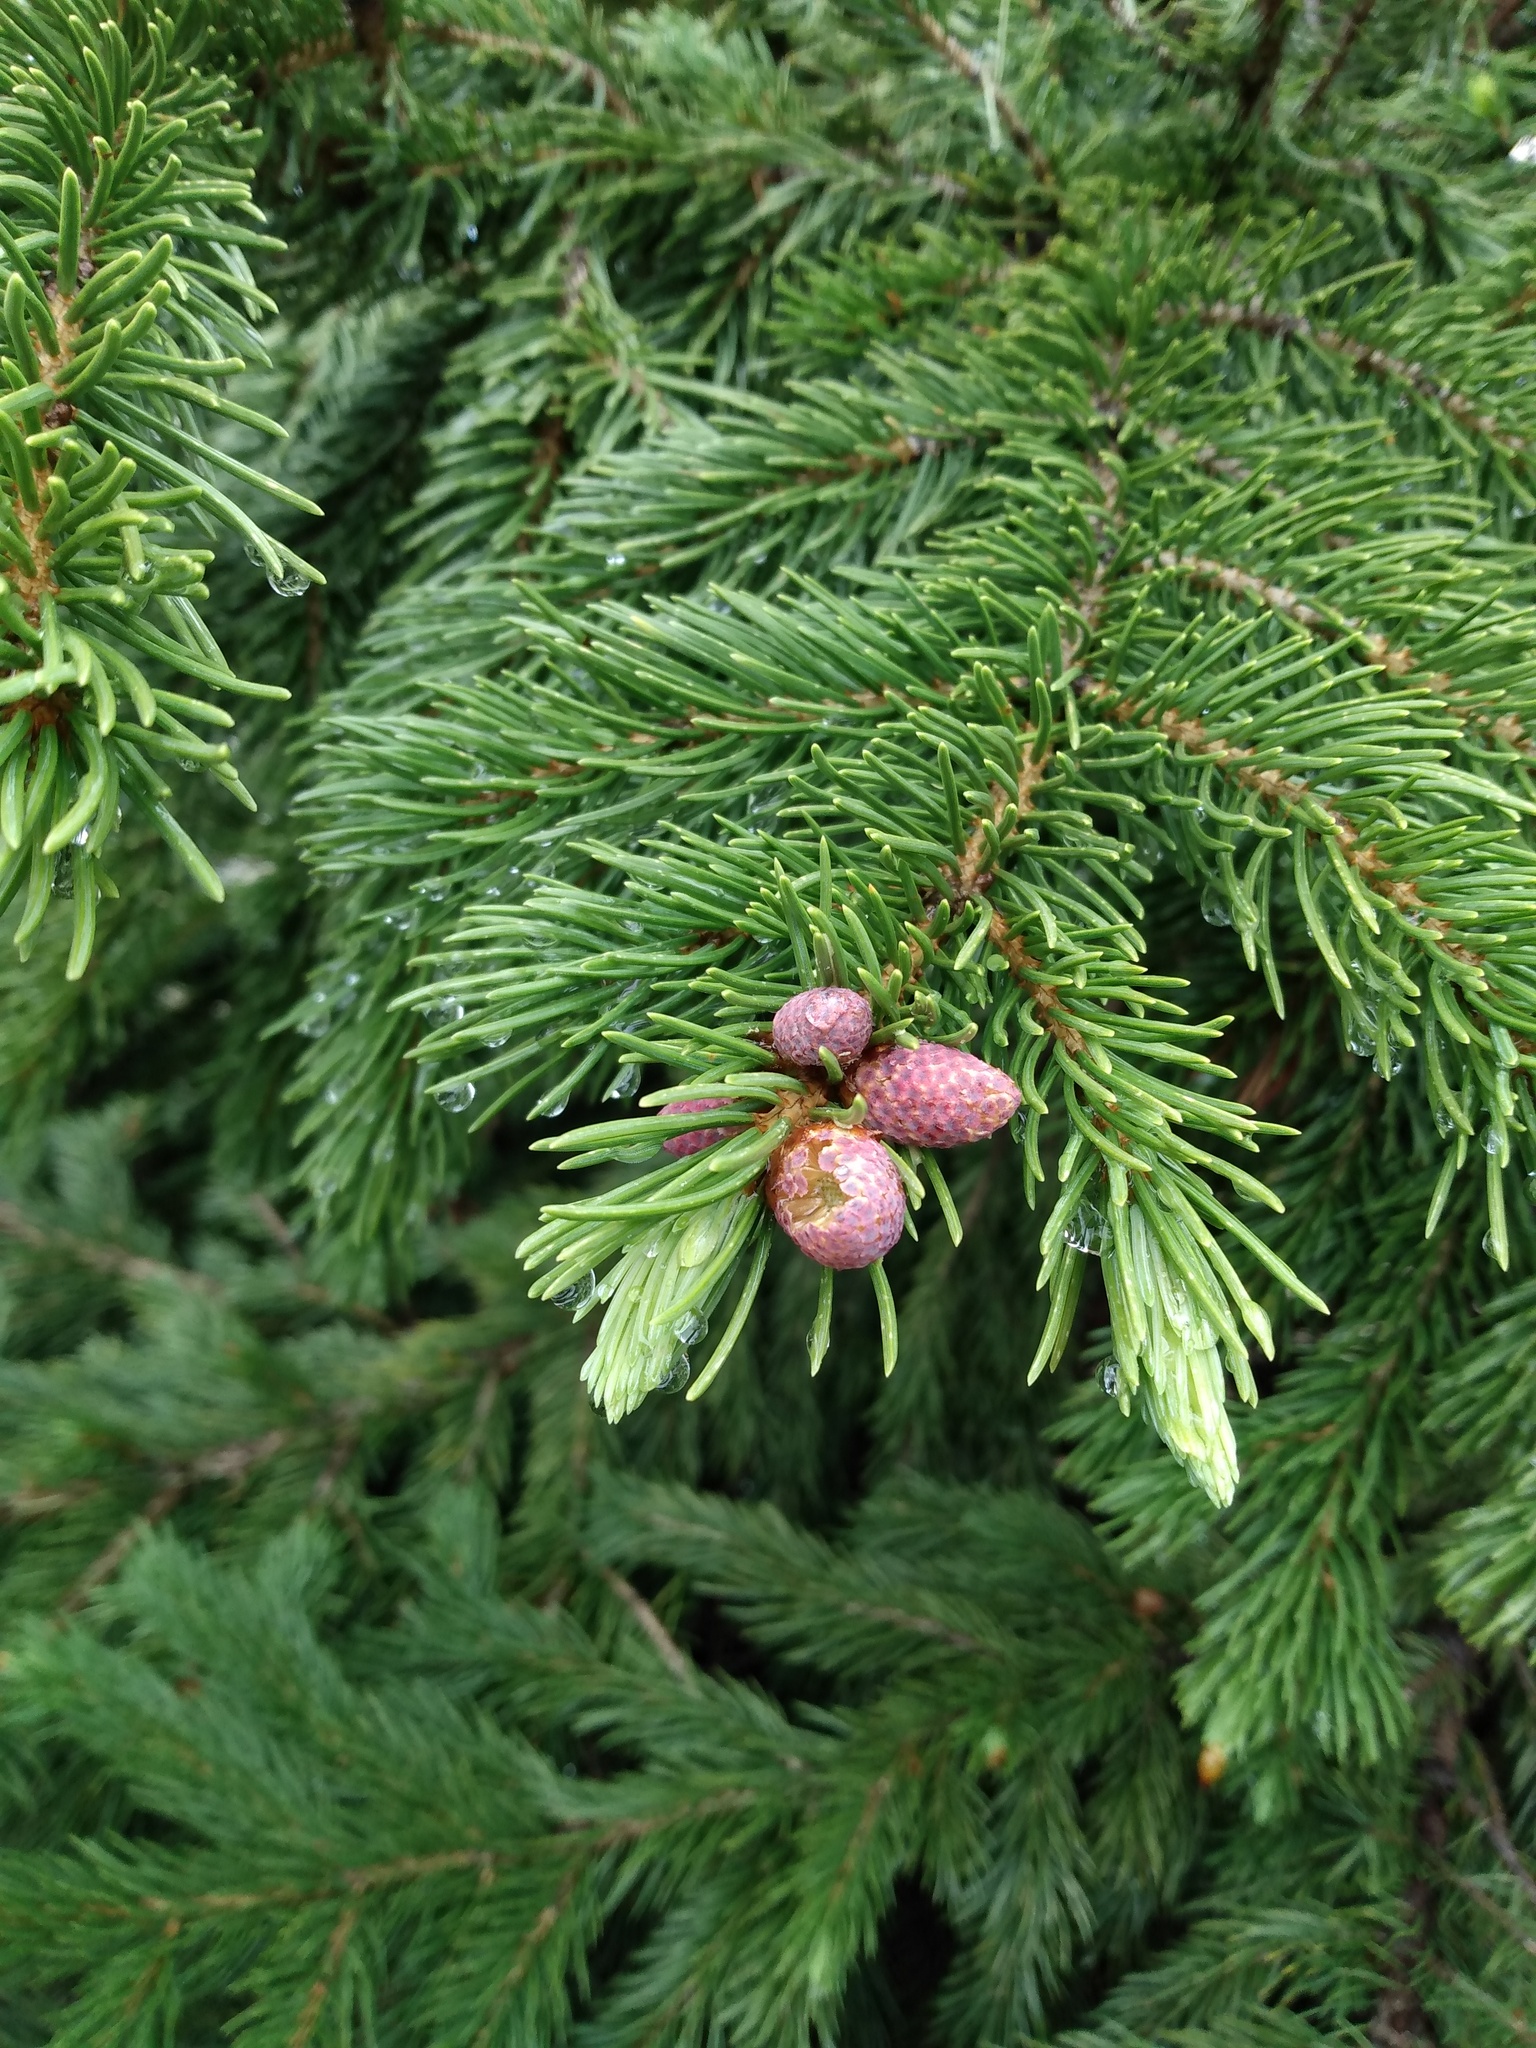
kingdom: Plantae
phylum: Tracheophyta
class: Pinopsida
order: Pinales
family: Pinaceae
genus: Picea
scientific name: Picea engelmannii
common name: Engelmann spruce
